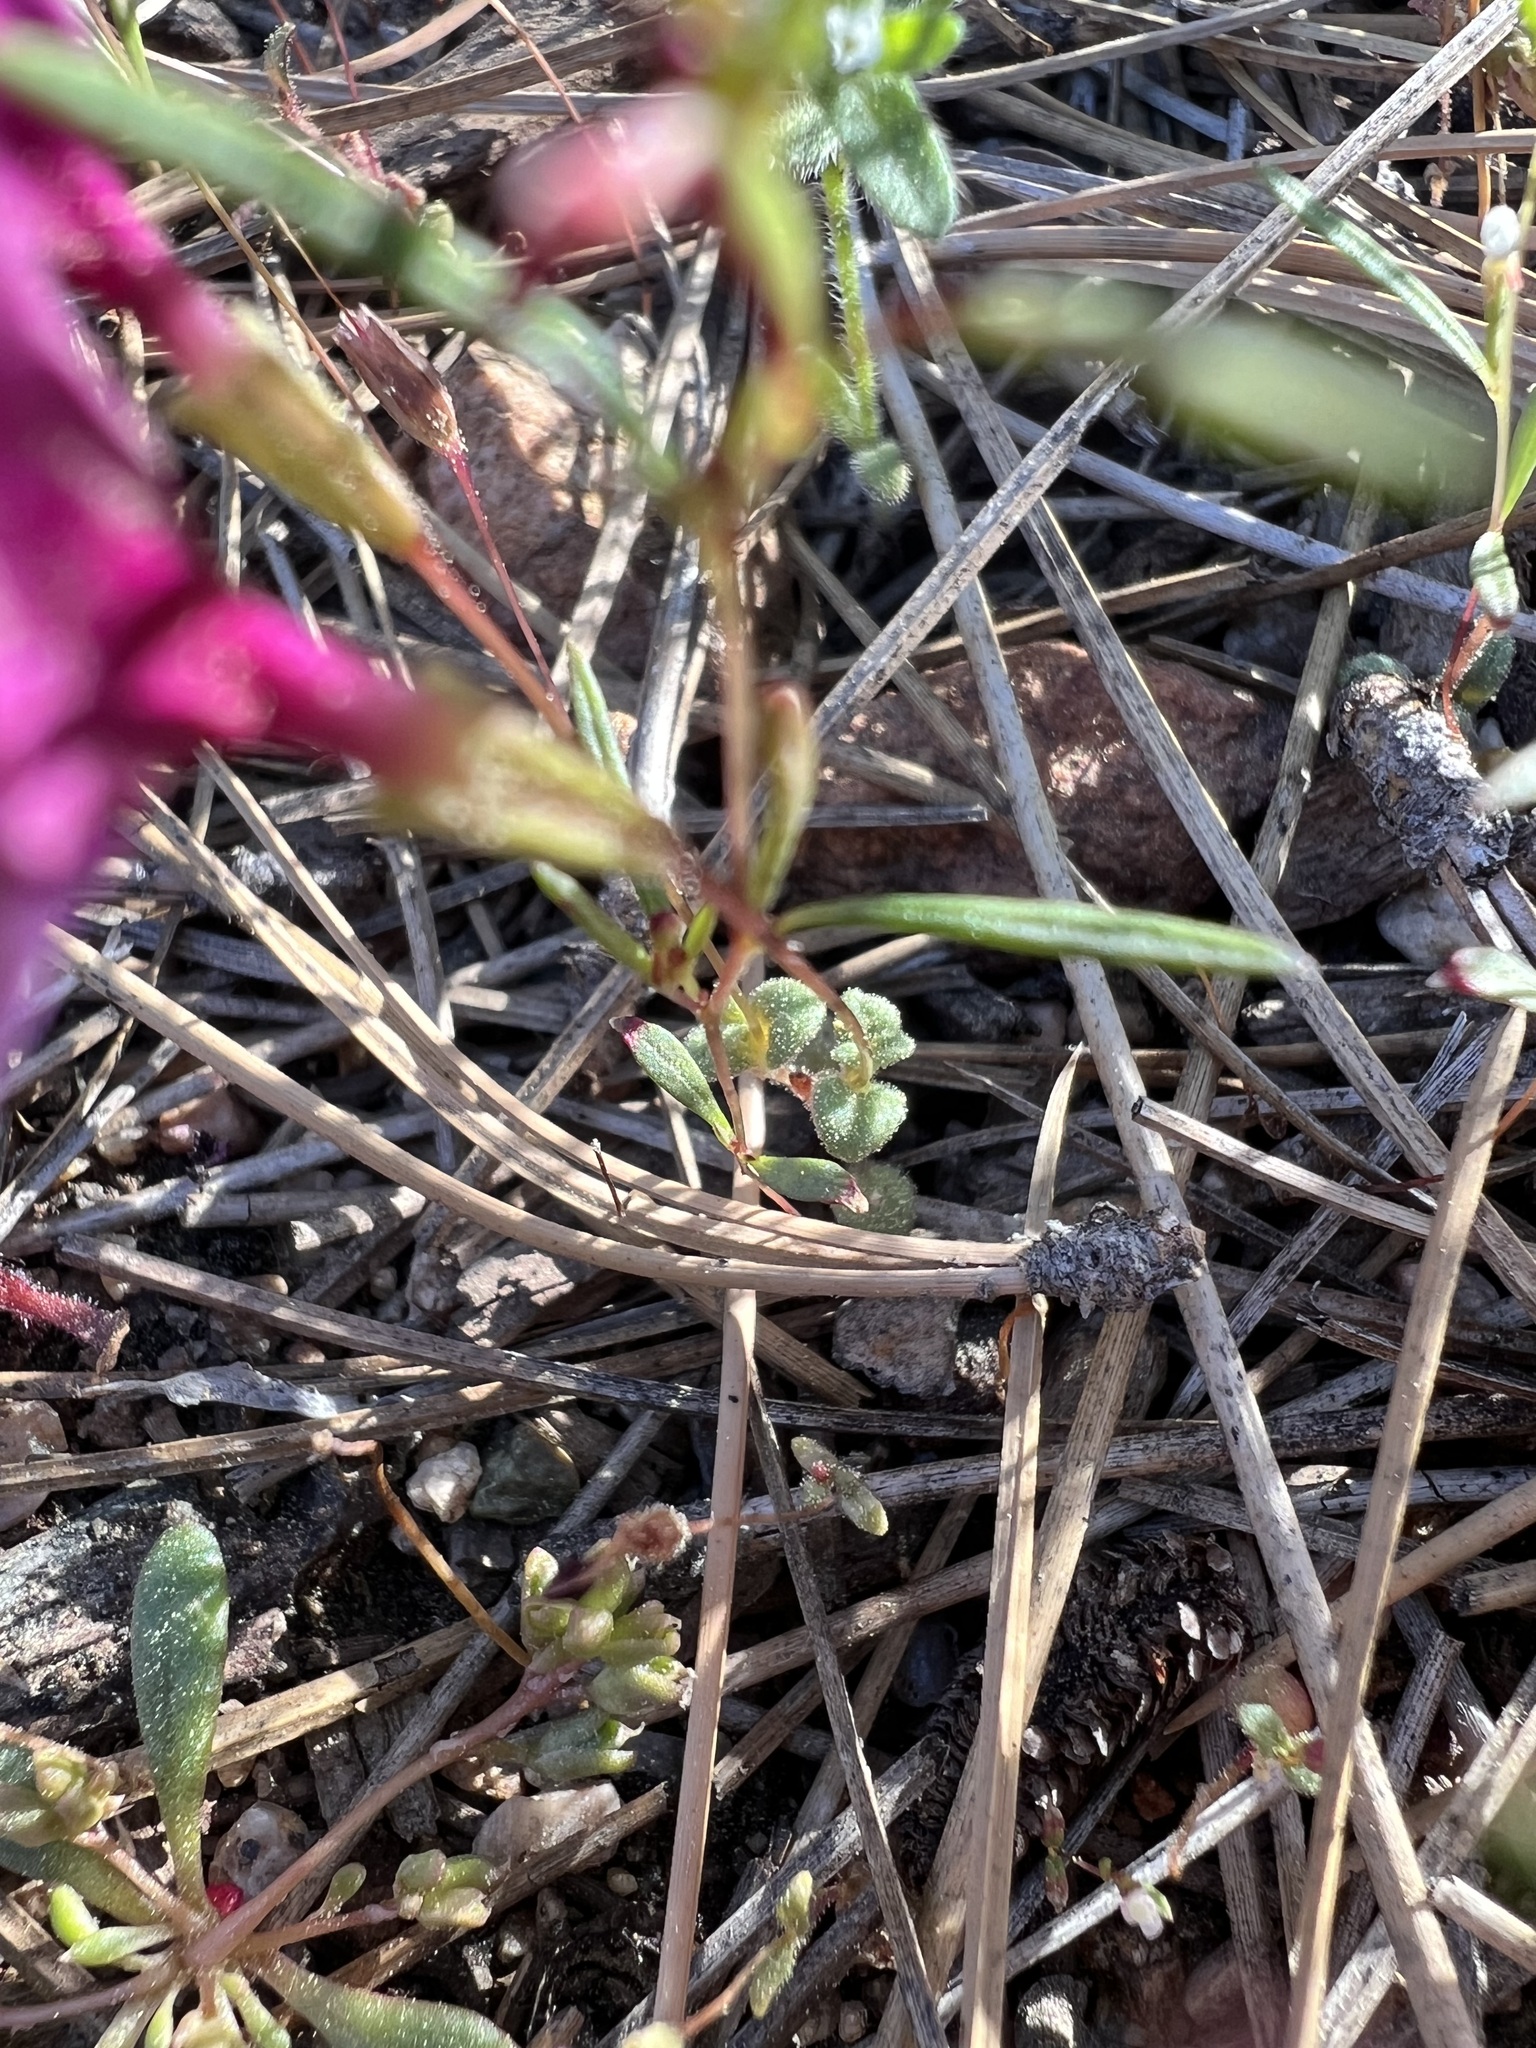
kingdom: Plantae
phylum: Tracheophyta
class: Magnoliopsida
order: Lamiales
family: Phrymaceae
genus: Erythranthe
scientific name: Erythranthe purpurea
